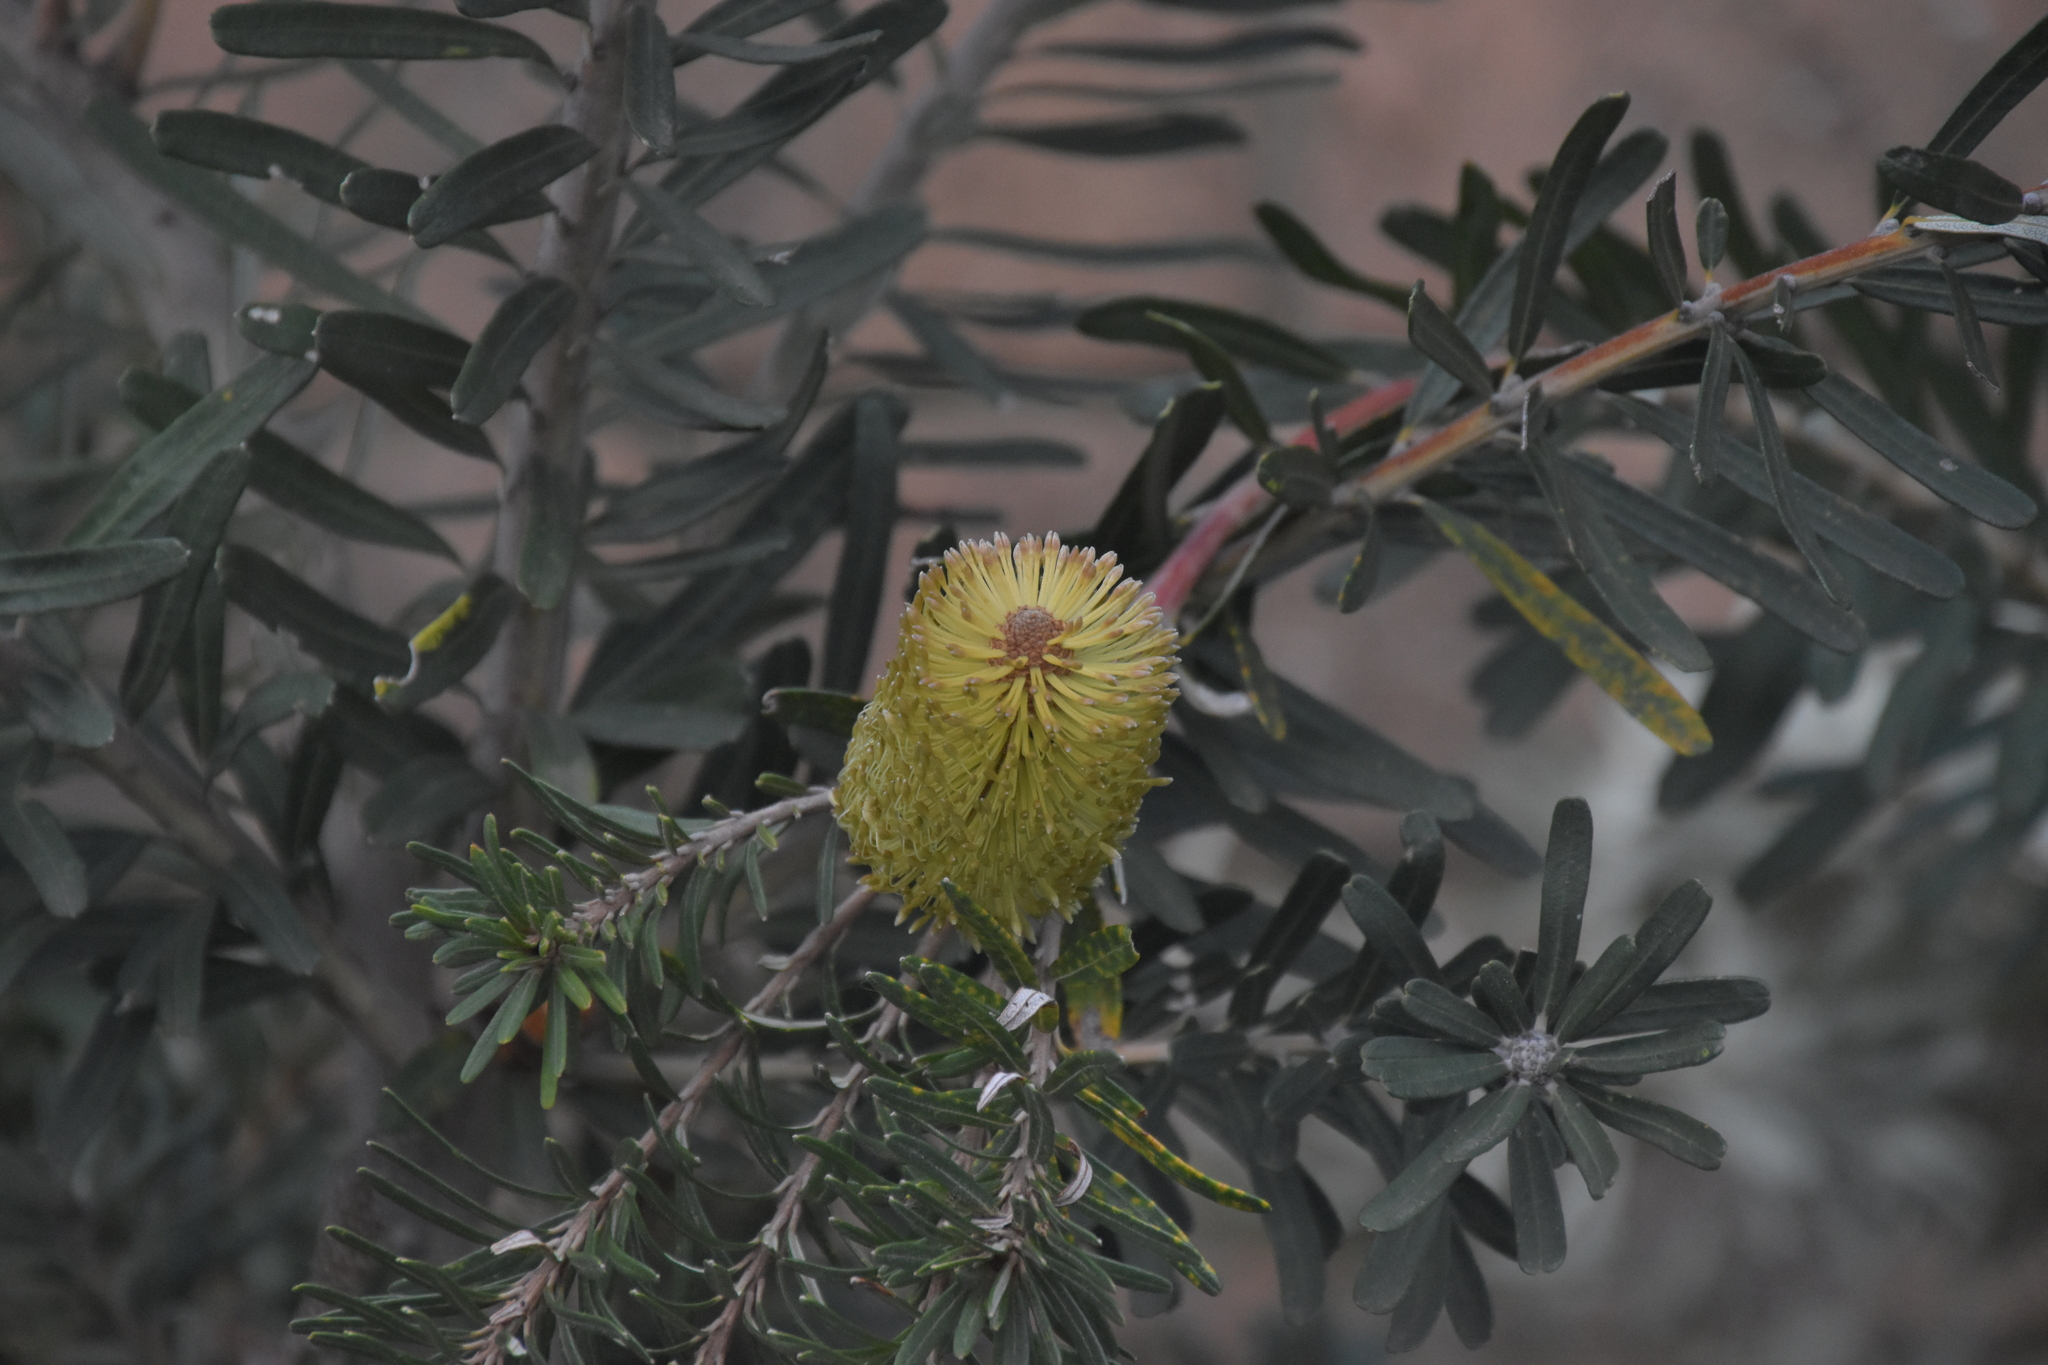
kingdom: Plantae
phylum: Tracheophyta
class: Magnoliopsida
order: Proteales
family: Proteaceae
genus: Banksia
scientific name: Banksia marginata
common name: Silver banksia
